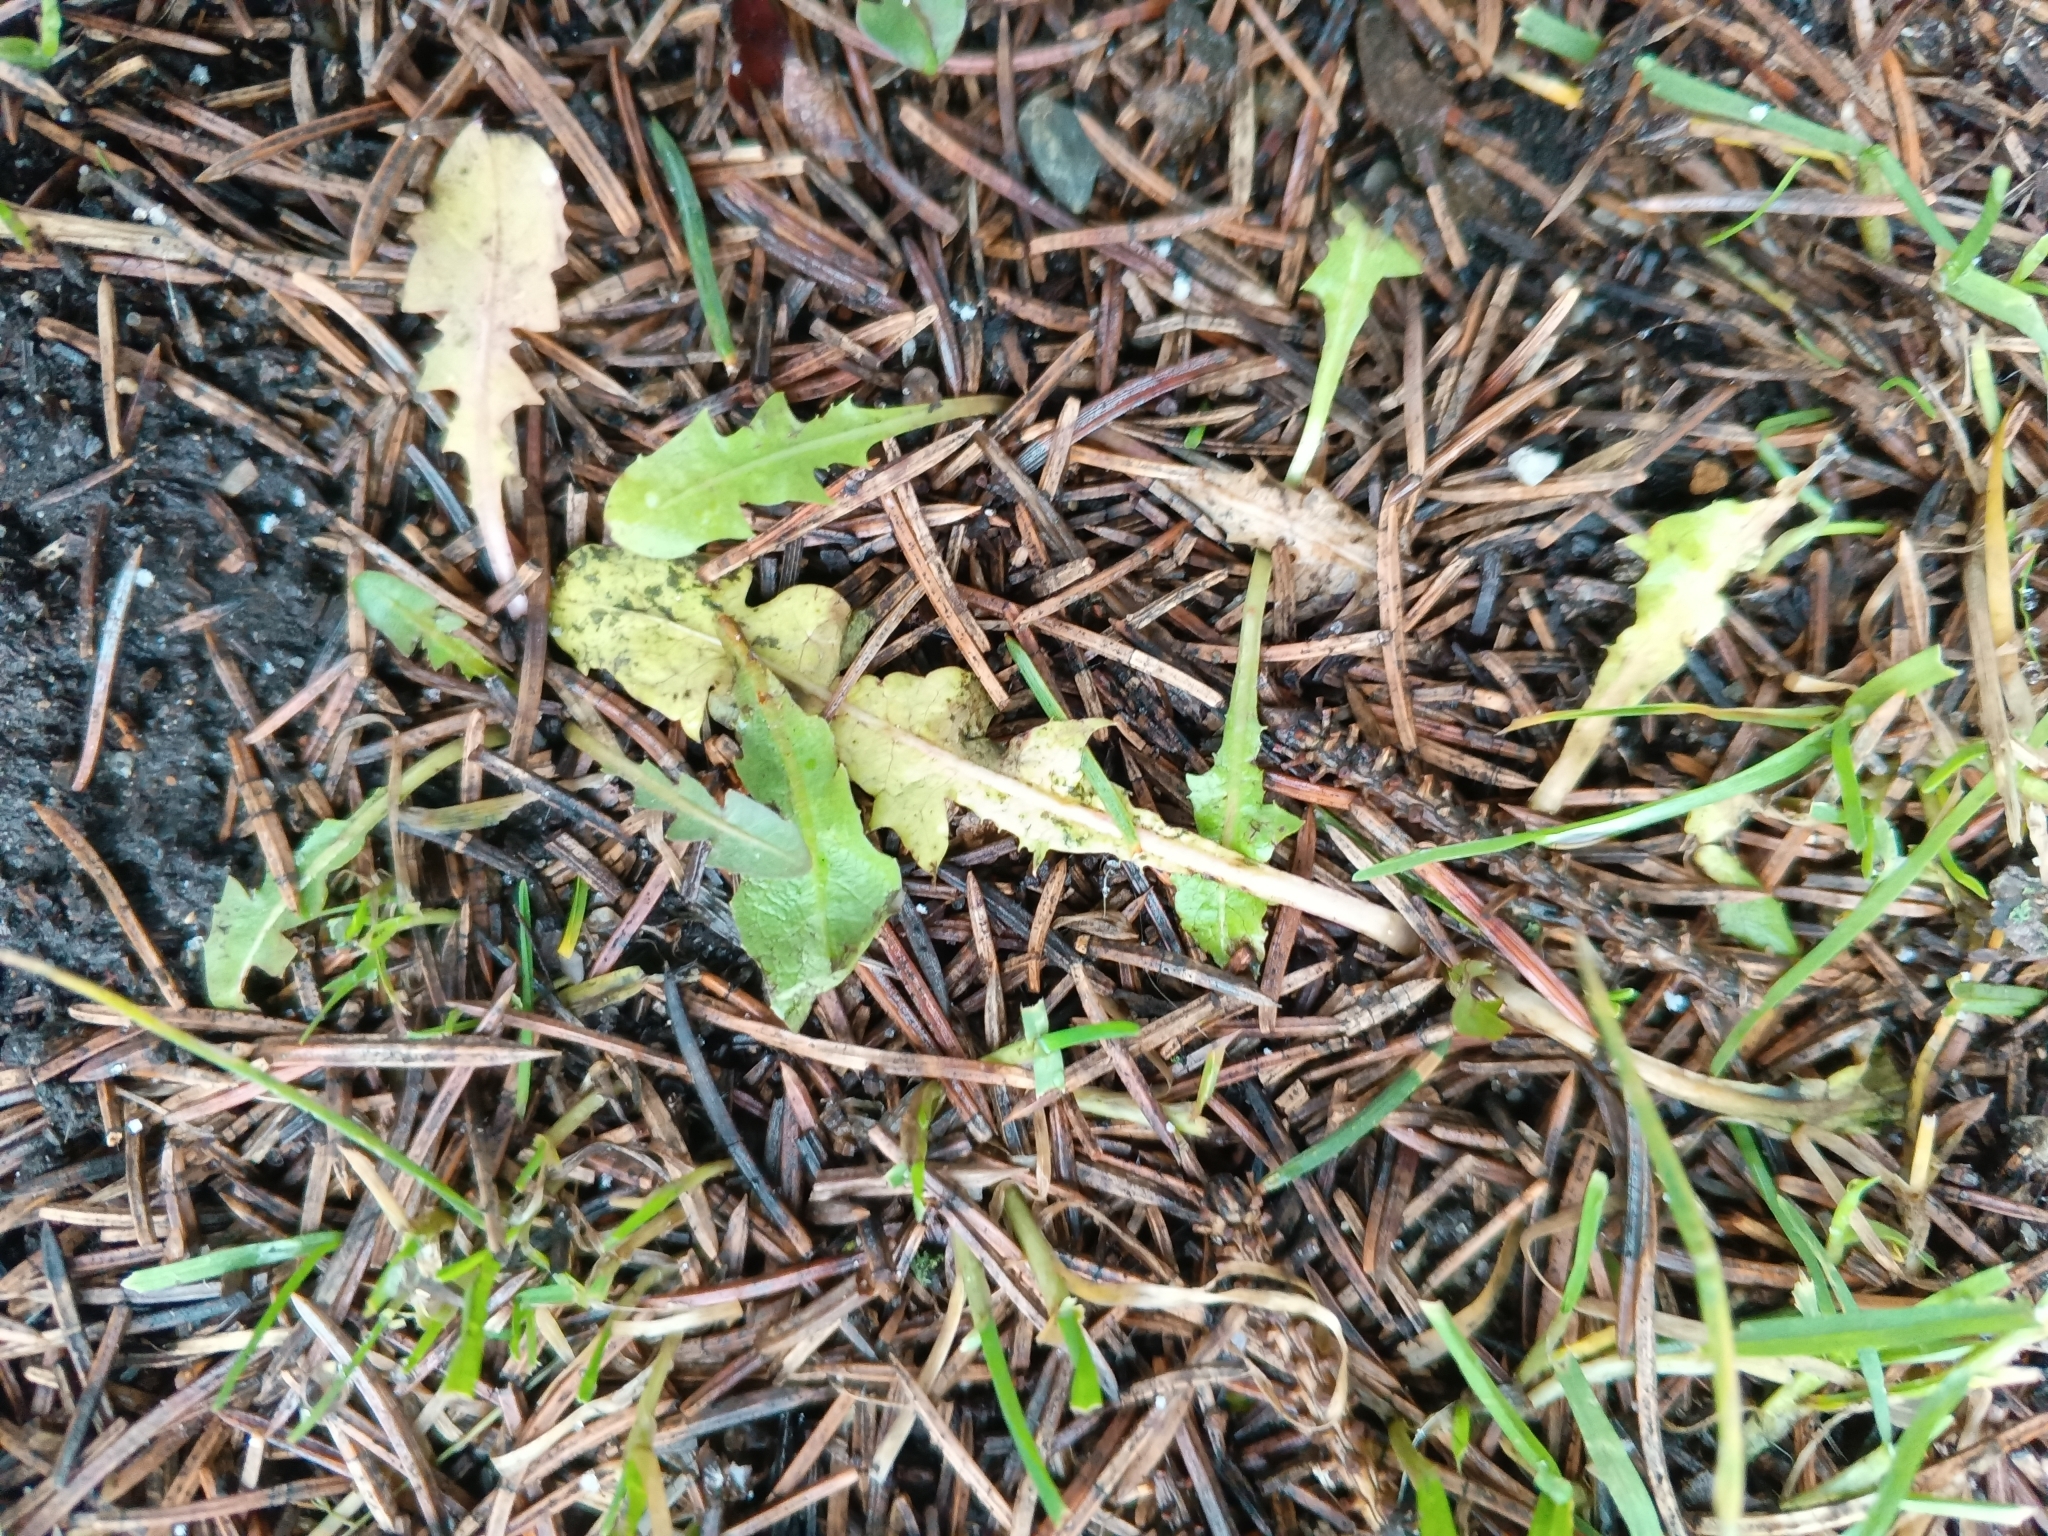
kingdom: Plantae
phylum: Tracheophyta
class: Magnoliopsida
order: Asterales
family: Asteraceae
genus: Taraxacum
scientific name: Taraxacum officinale
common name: Common dandelion
